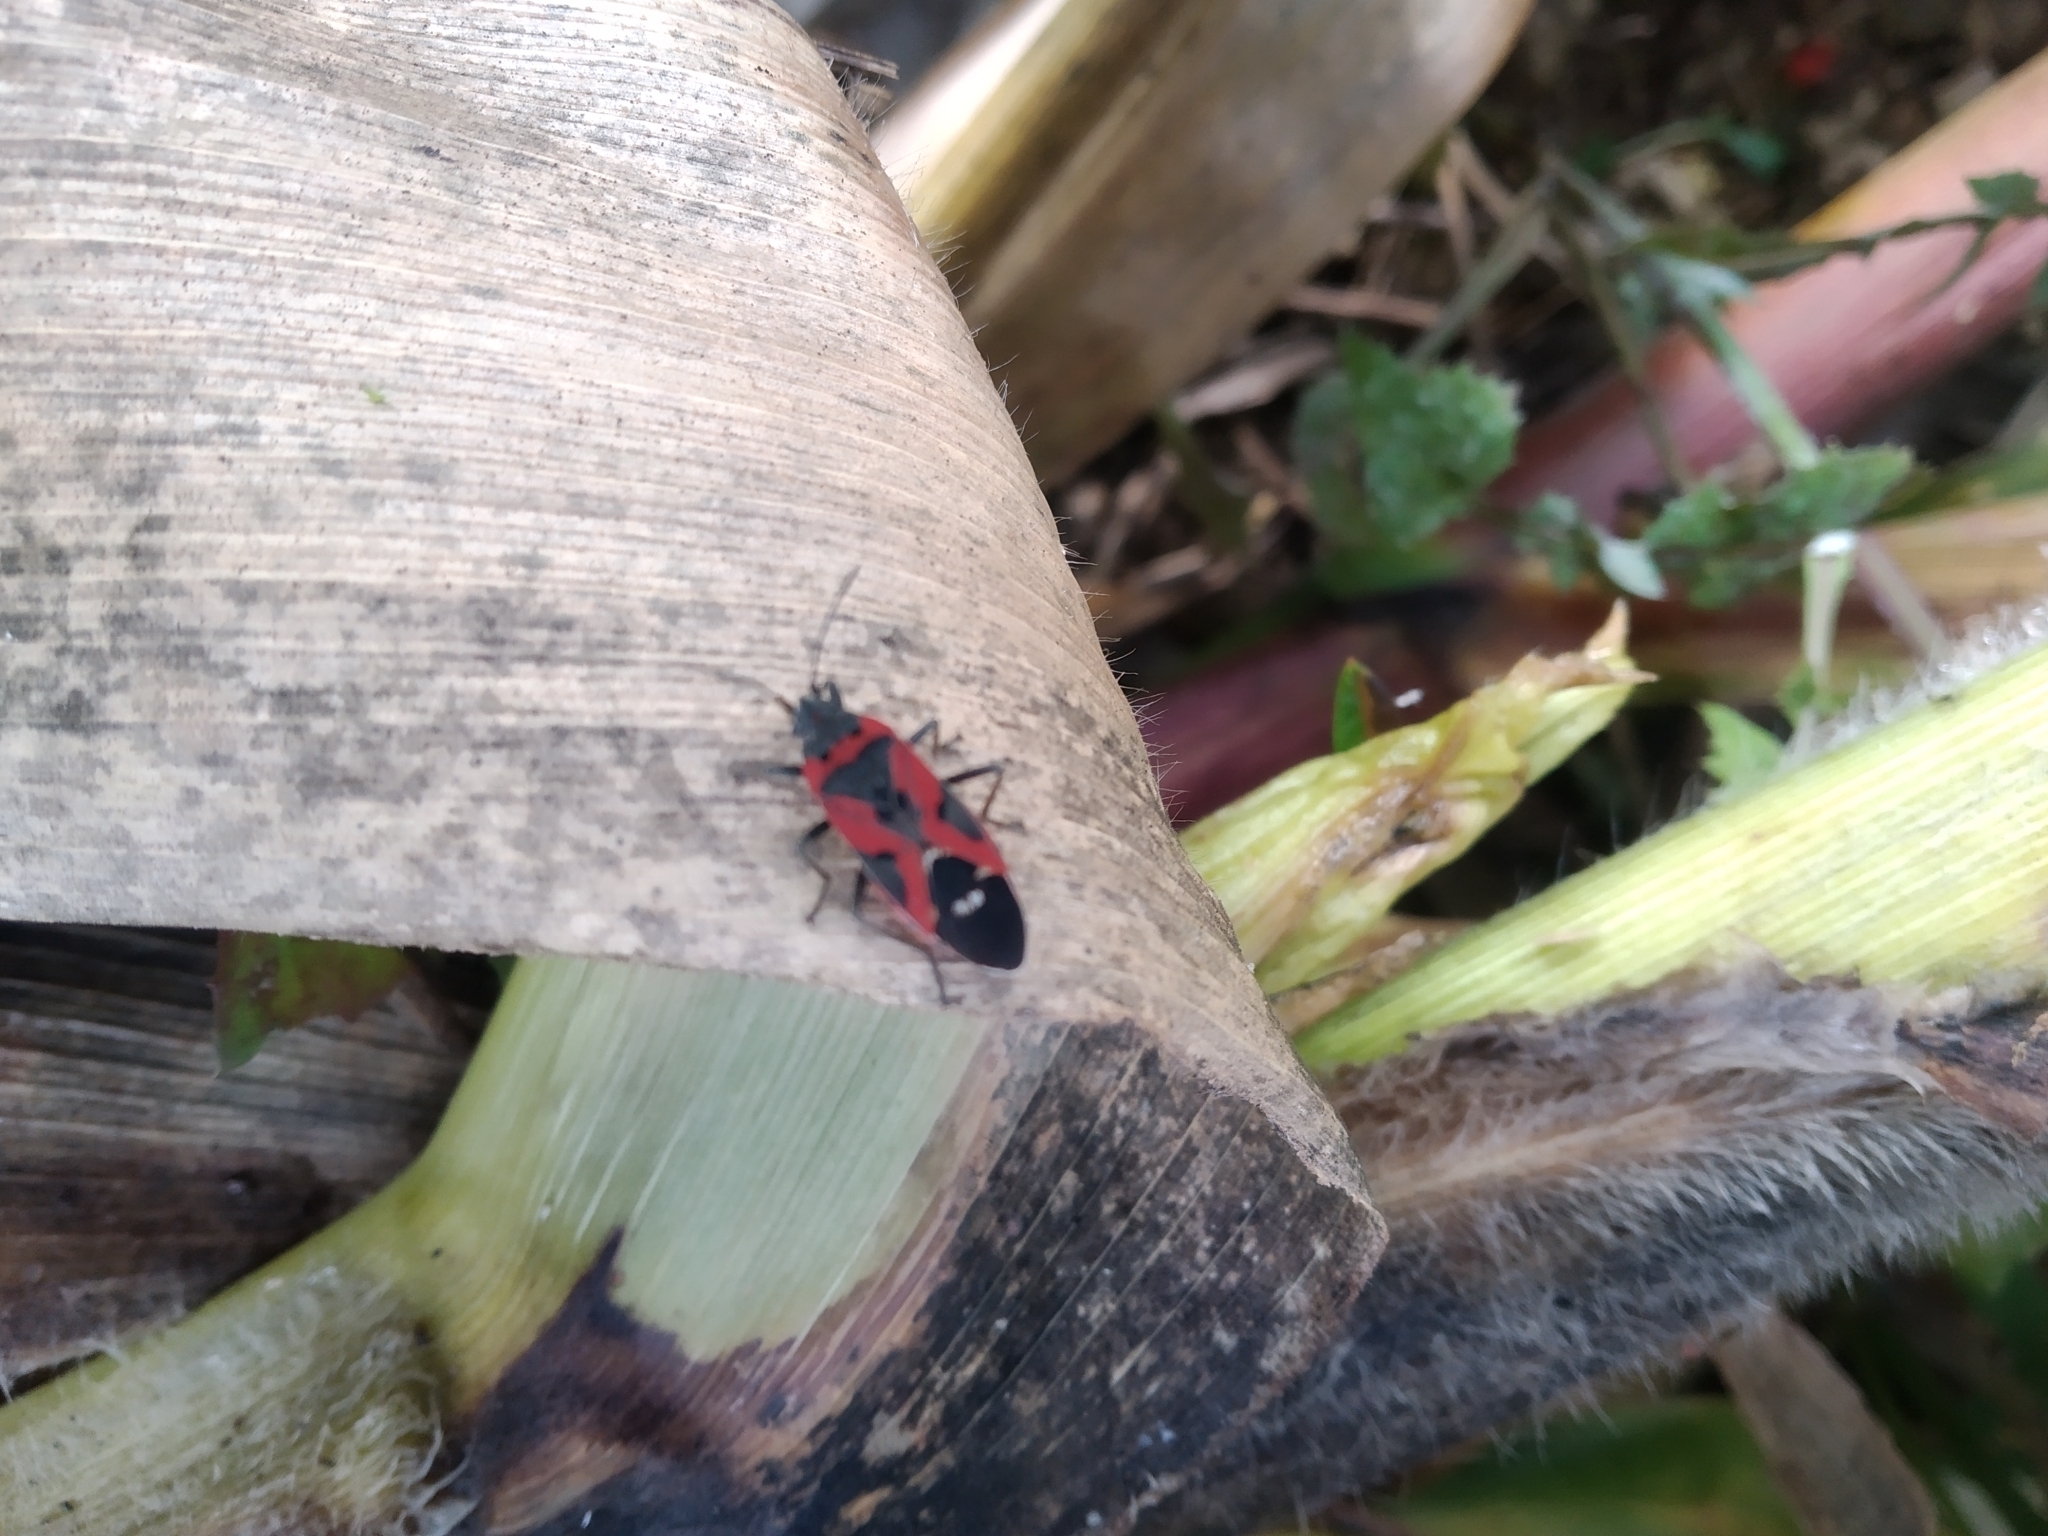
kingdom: Animalia
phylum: Arthropoda
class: Insecta
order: Hemiptera
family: Lygaeidae
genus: Lygaeus
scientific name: Lygaeus reclivatus
